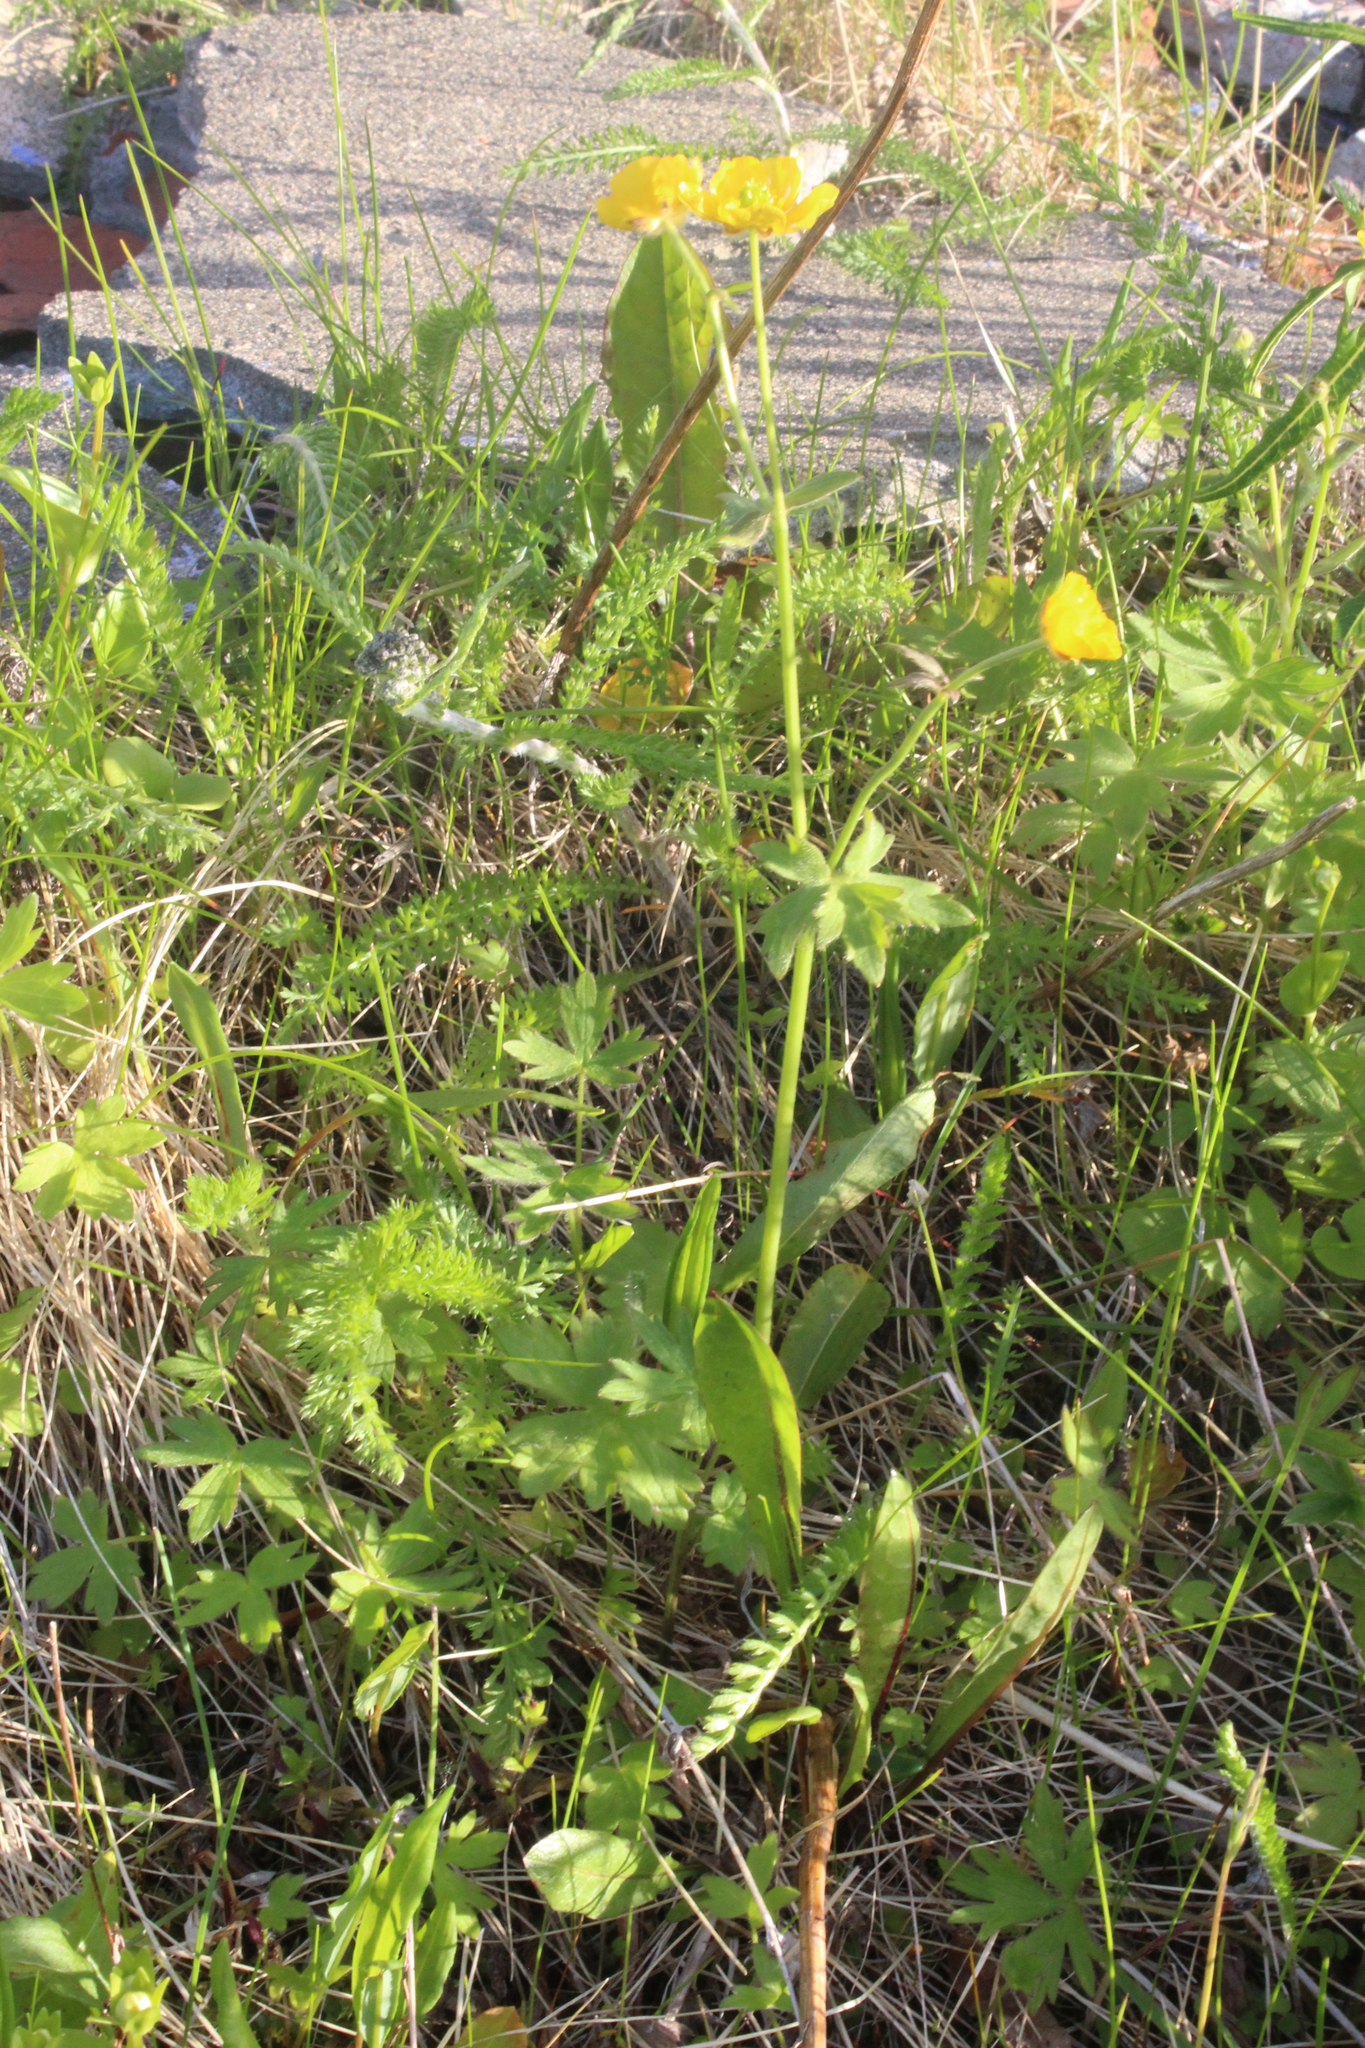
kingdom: Plantae
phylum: Tracheophyta
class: Magnoliopsida
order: Ranunculales
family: Ranunculaceae
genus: Ranunculus
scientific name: Ranunculus propinquus
